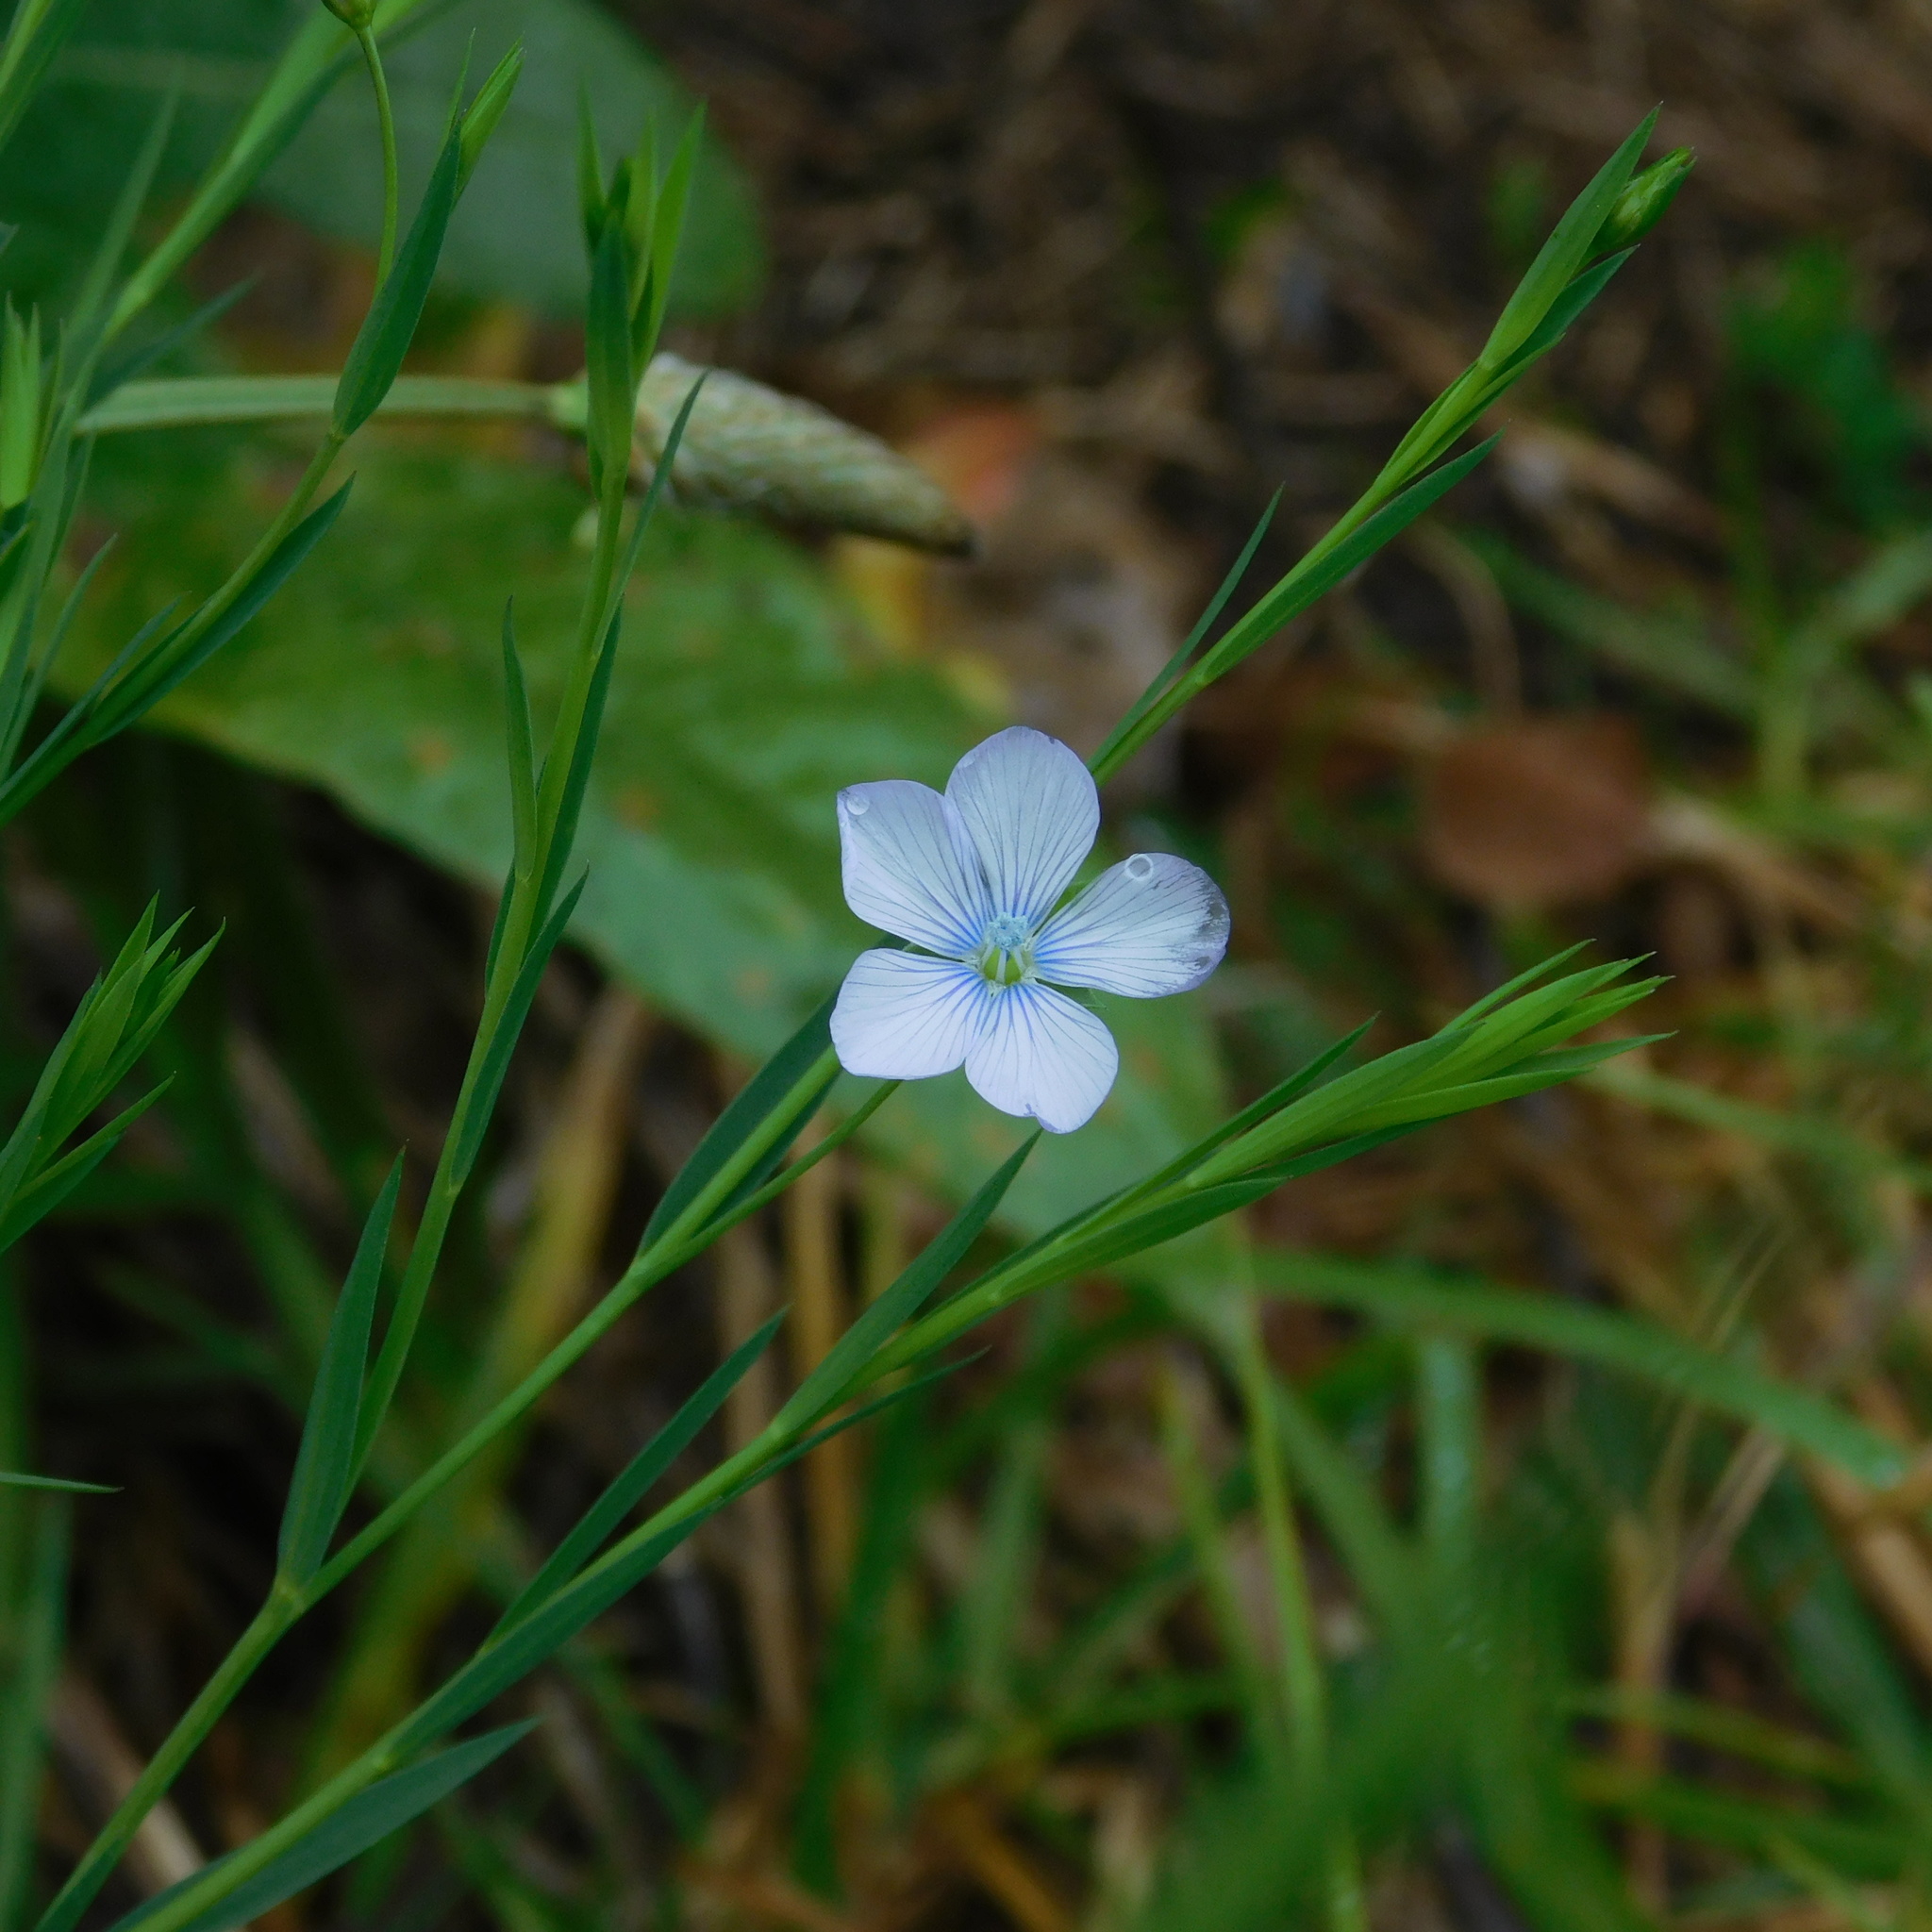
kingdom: Plantae
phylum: Tracheophyta
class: Magnoliopsida
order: Malpighiales
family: Linaceae
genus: Linum
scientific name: Linum bienne
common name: Pale flax
